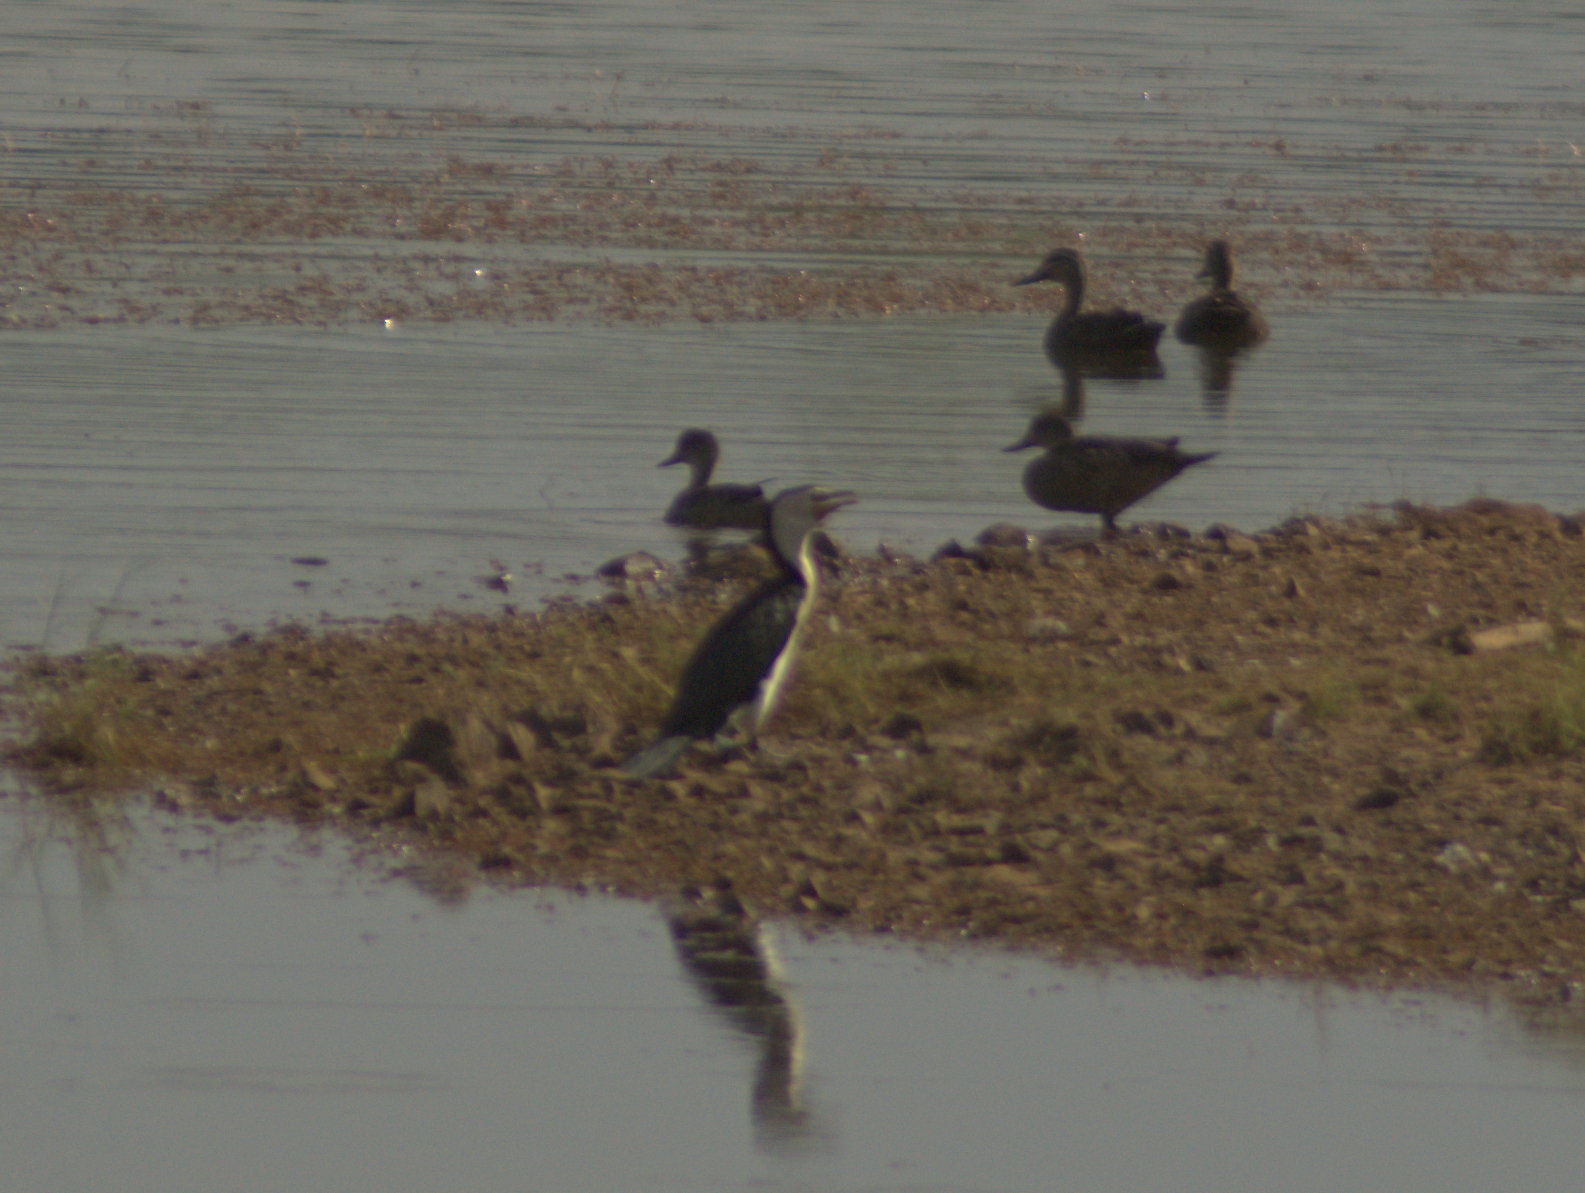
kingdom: Animalia
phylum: Chordata
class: Aves
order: Suliformes
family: Phalacrocoracidae
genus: Microcarbo
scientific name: Microcarbo melanoleucos
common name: Little pied cormorant
